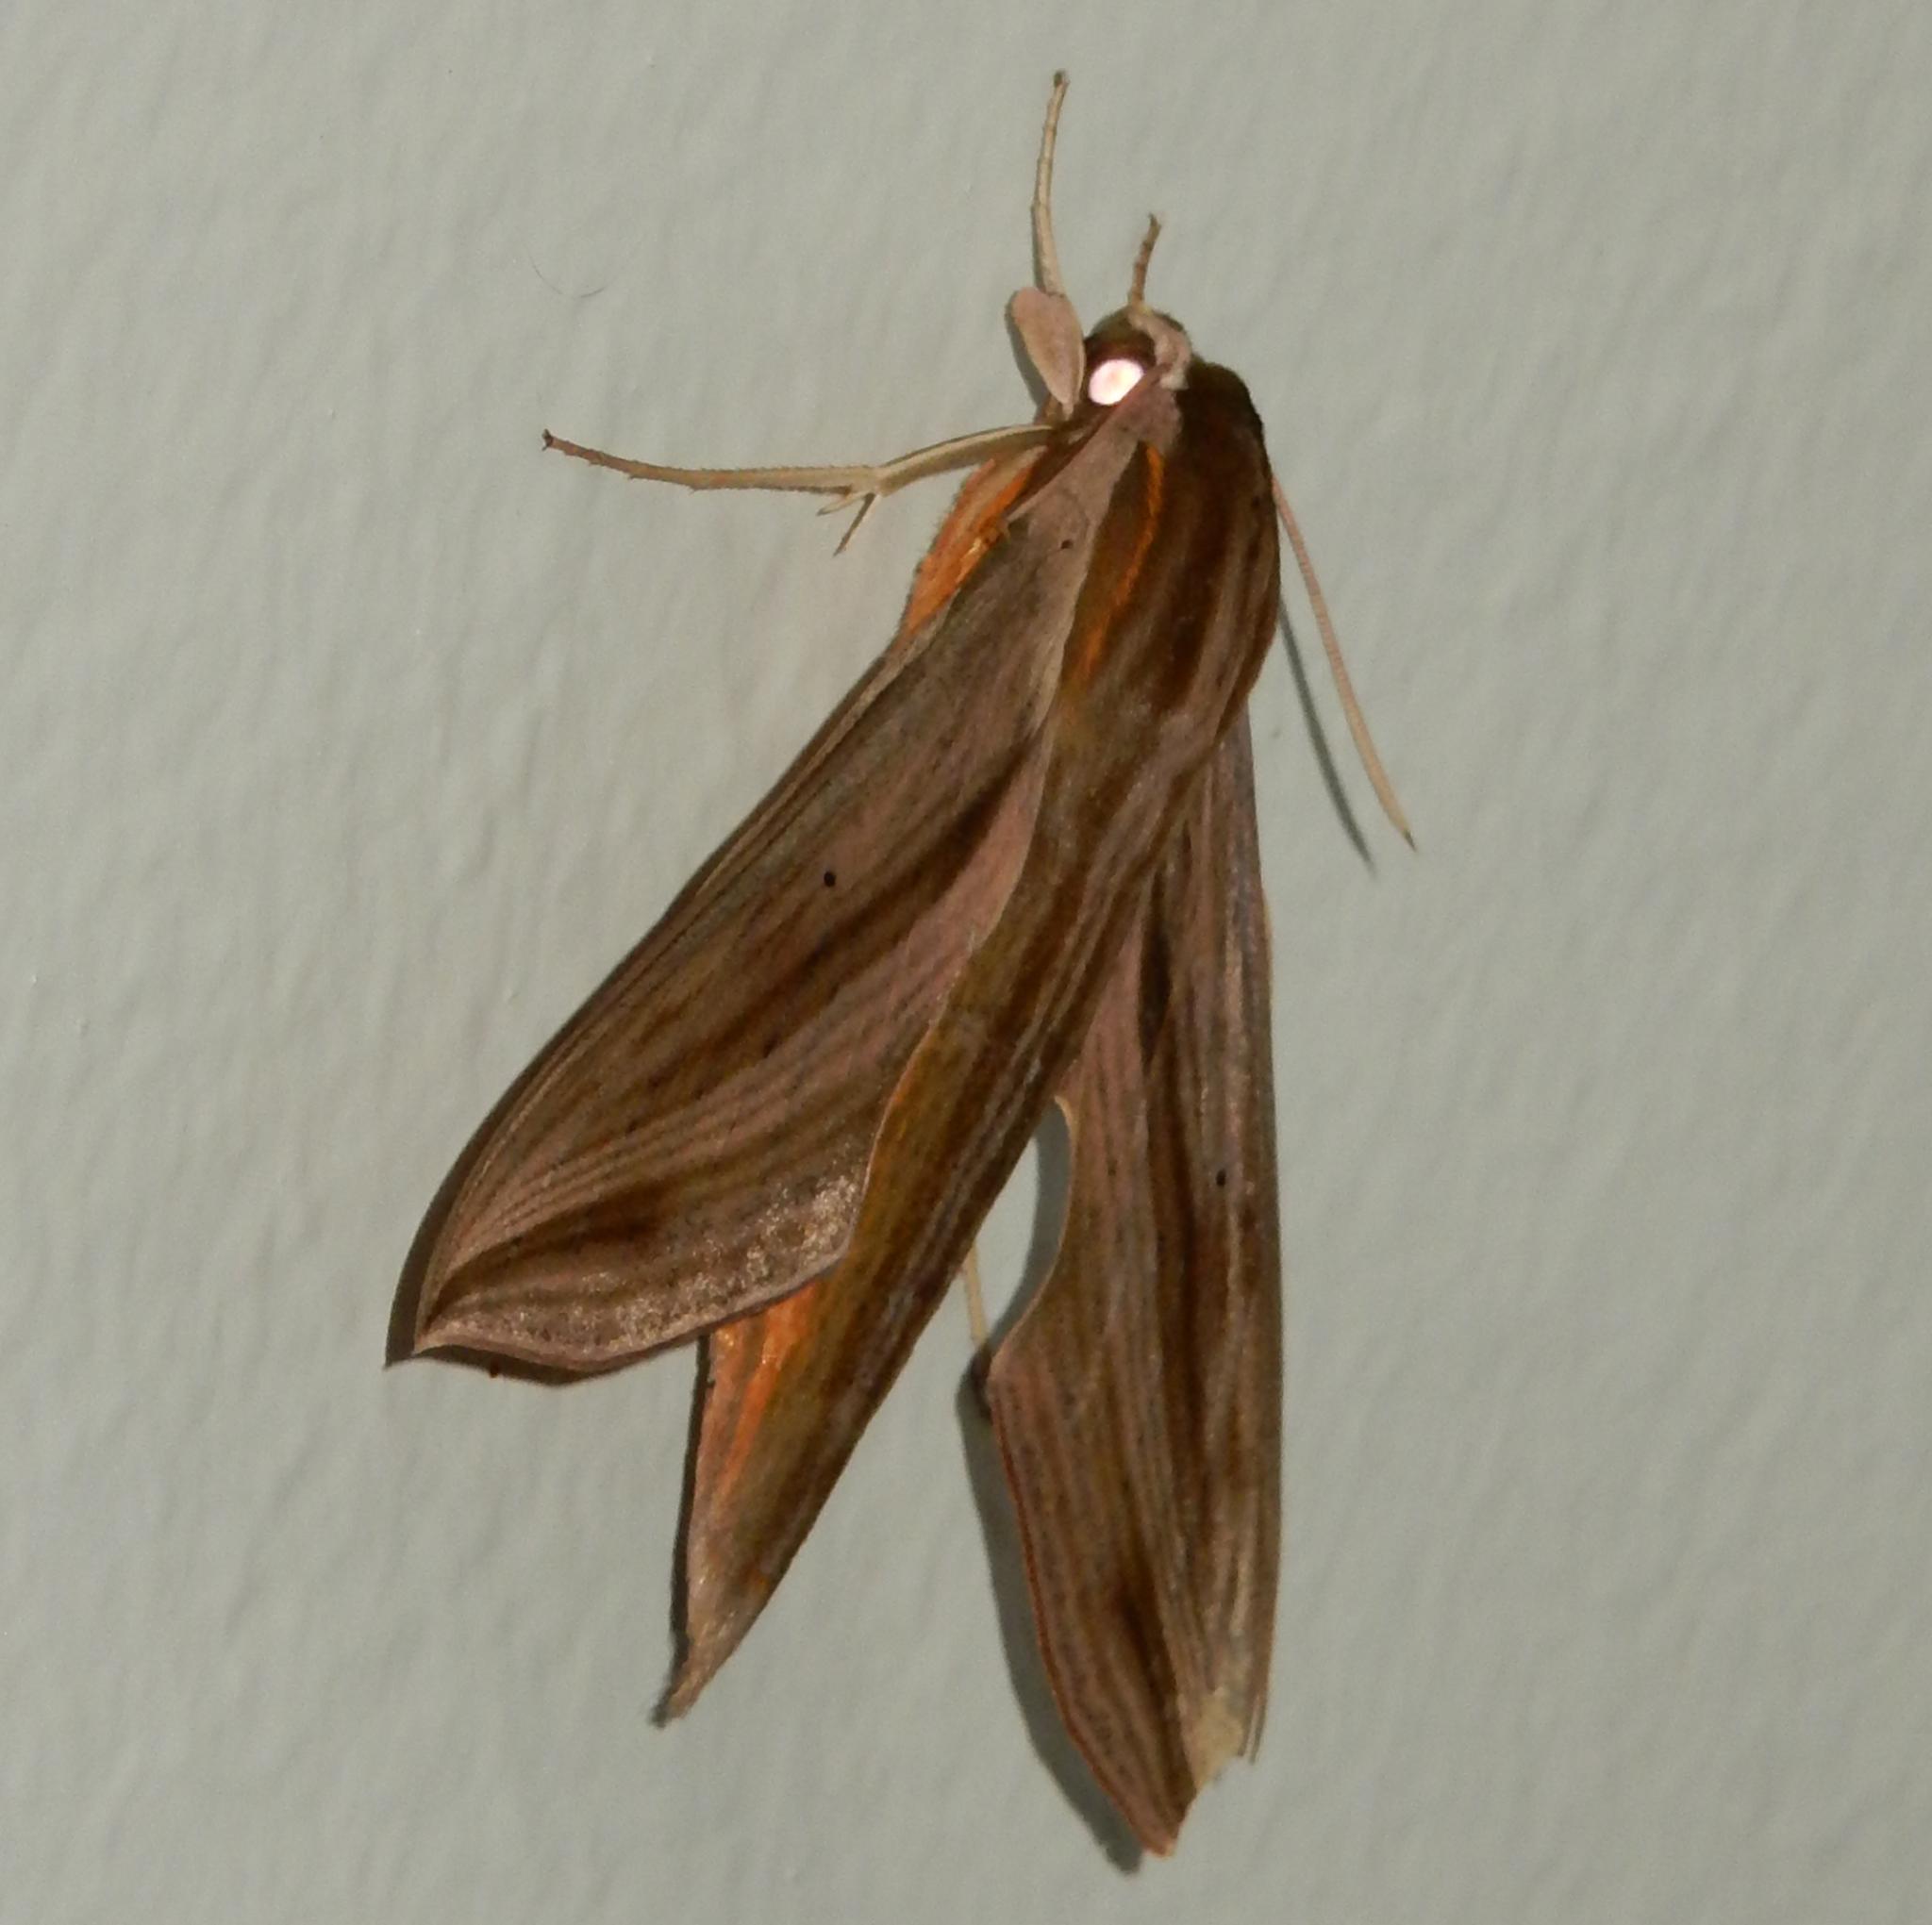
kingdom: Animalia
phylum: Arthropoda
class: Insecta
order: Lepidoptera
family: Sphingidae
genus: Hippotion
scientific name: Hippotion eson
